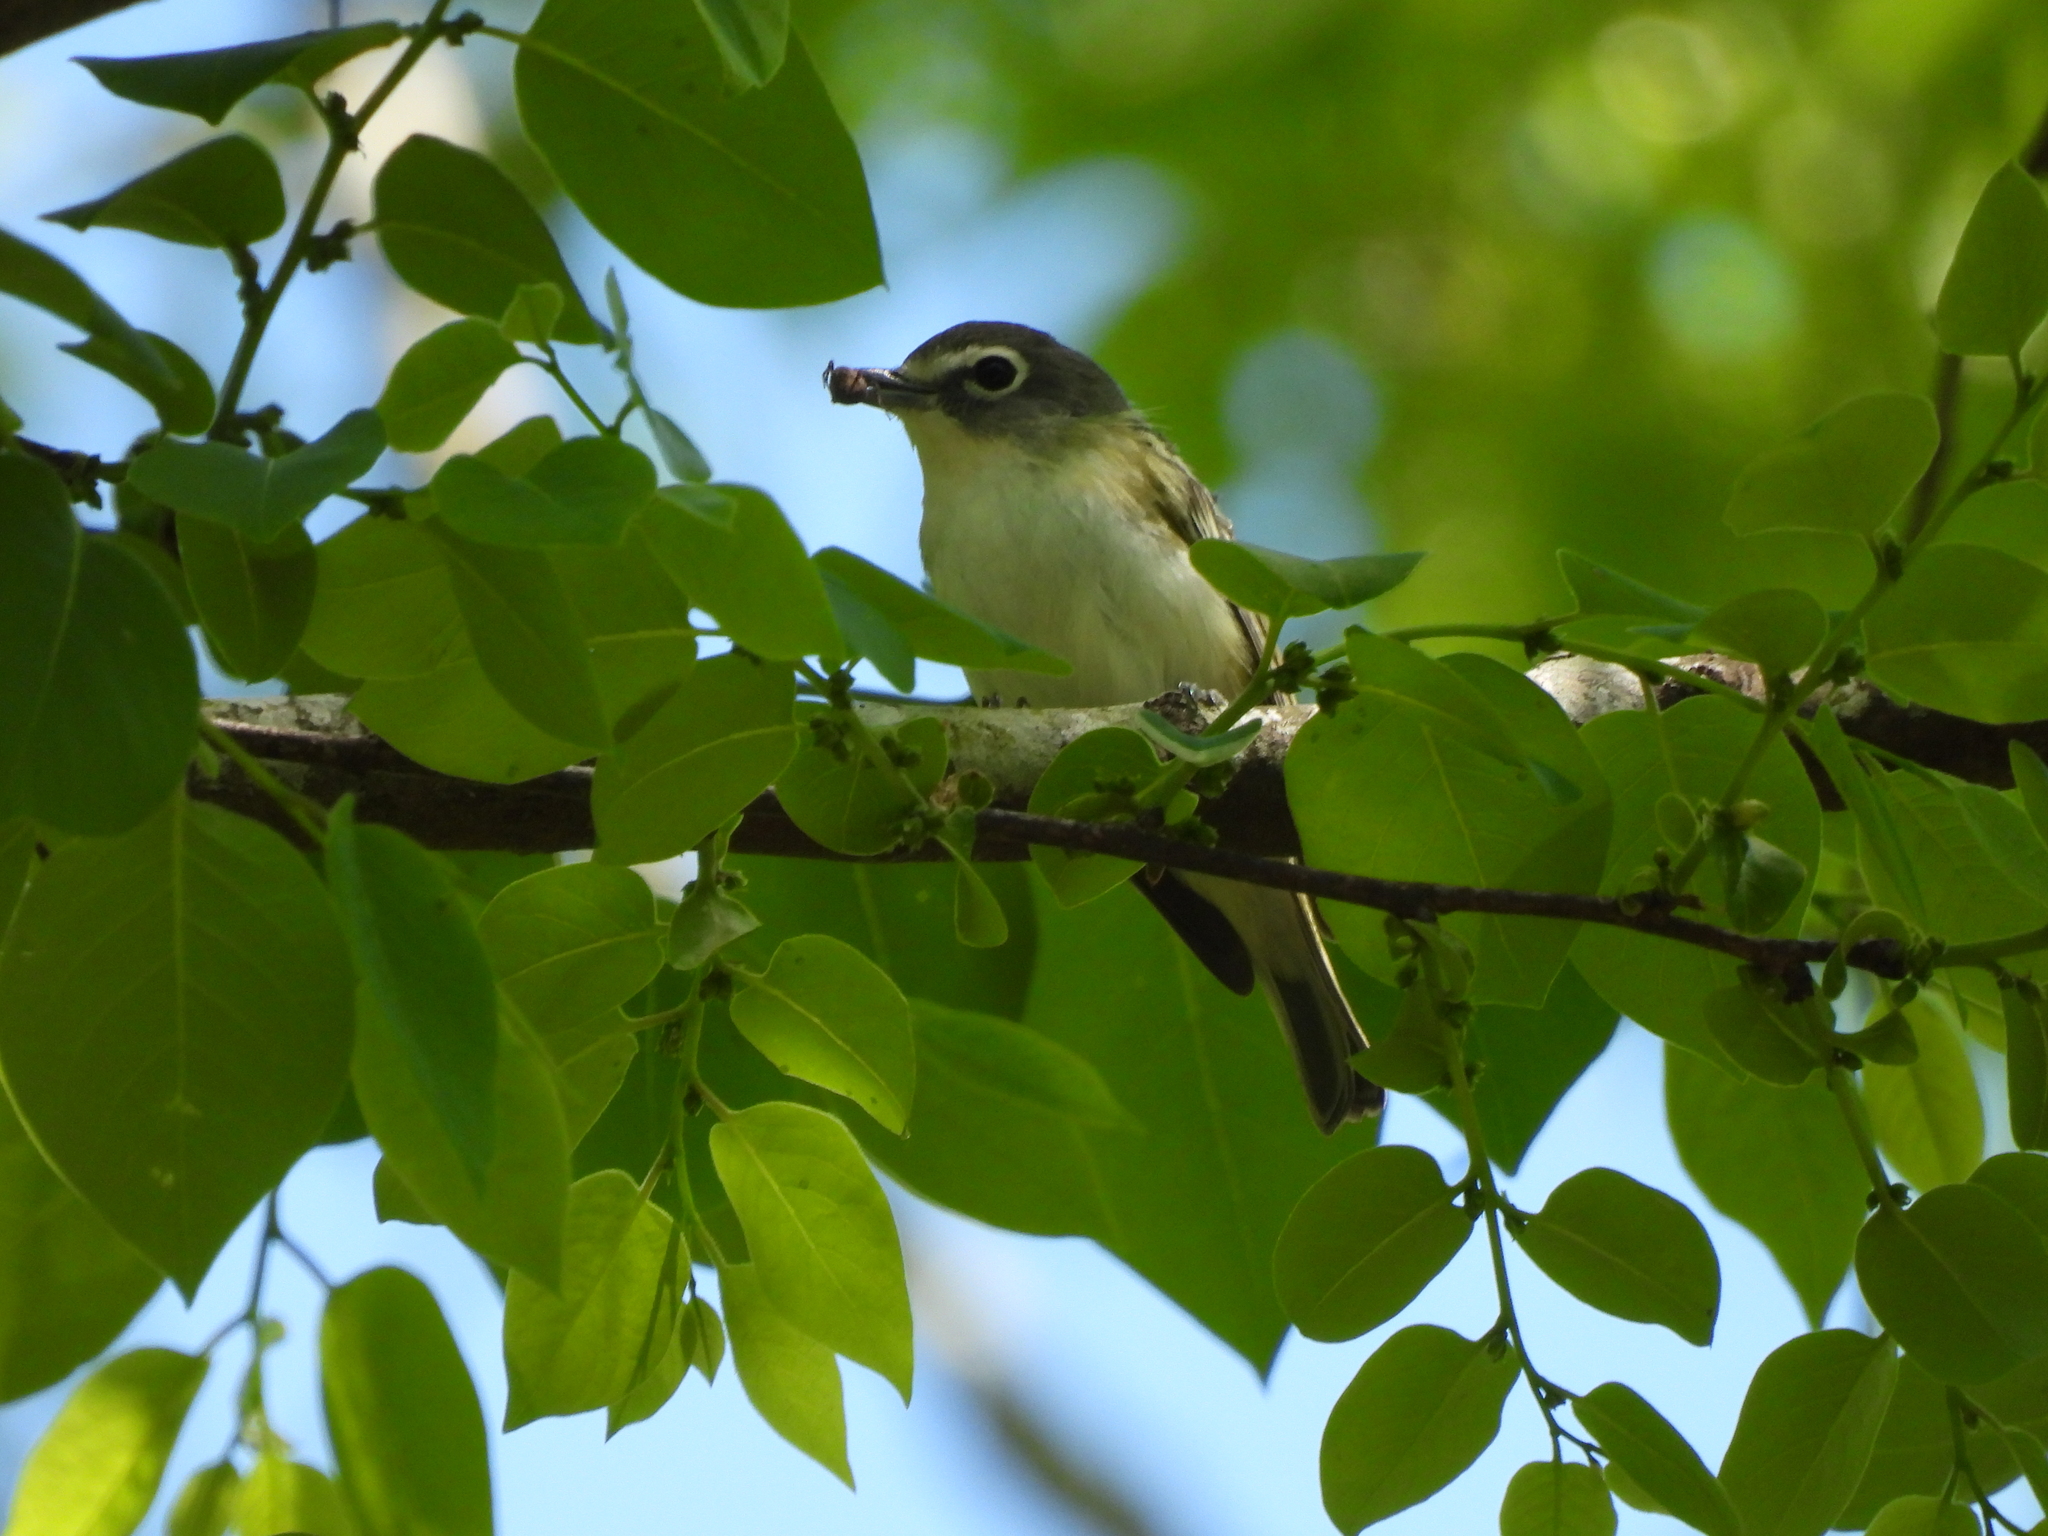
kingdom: Animalia
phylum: Chordata
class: Aves
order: Passeriformes
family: Vireonidae
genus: Vireo
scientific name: Vireo solitarius
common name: Blue-headed vireo
